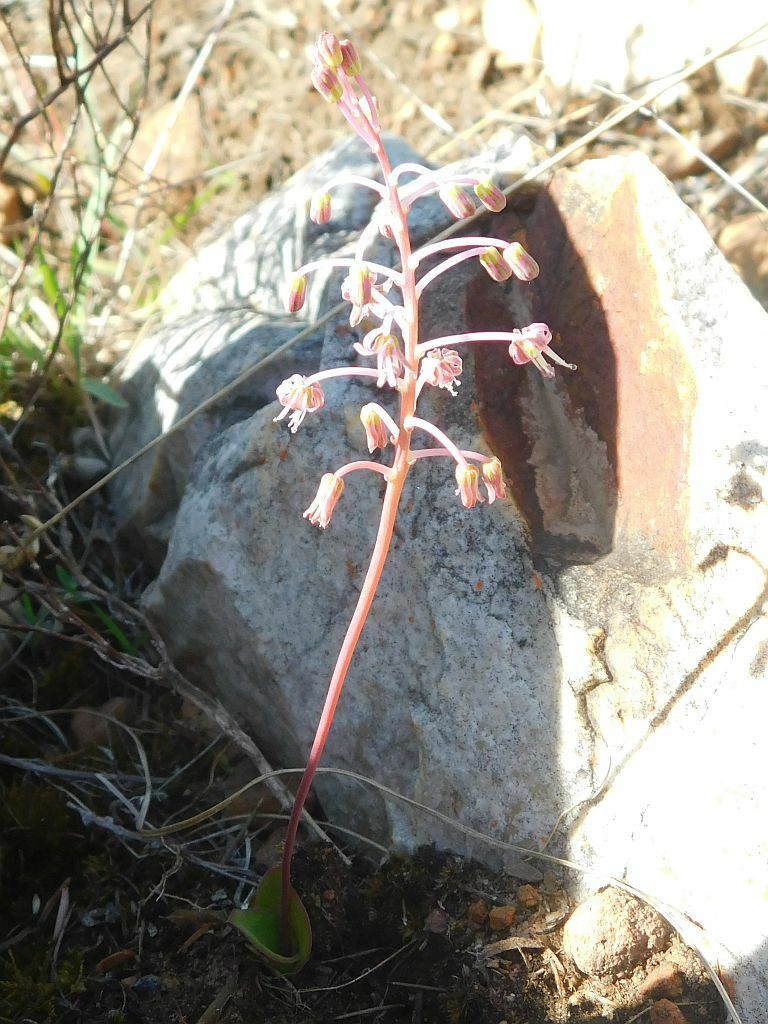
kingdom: Plantae
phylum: Tracheophyta
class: Liliopsida
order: Asparagales
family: Asparagaceae
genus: Ledebouria
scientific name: Ledebouria ovalifolia
